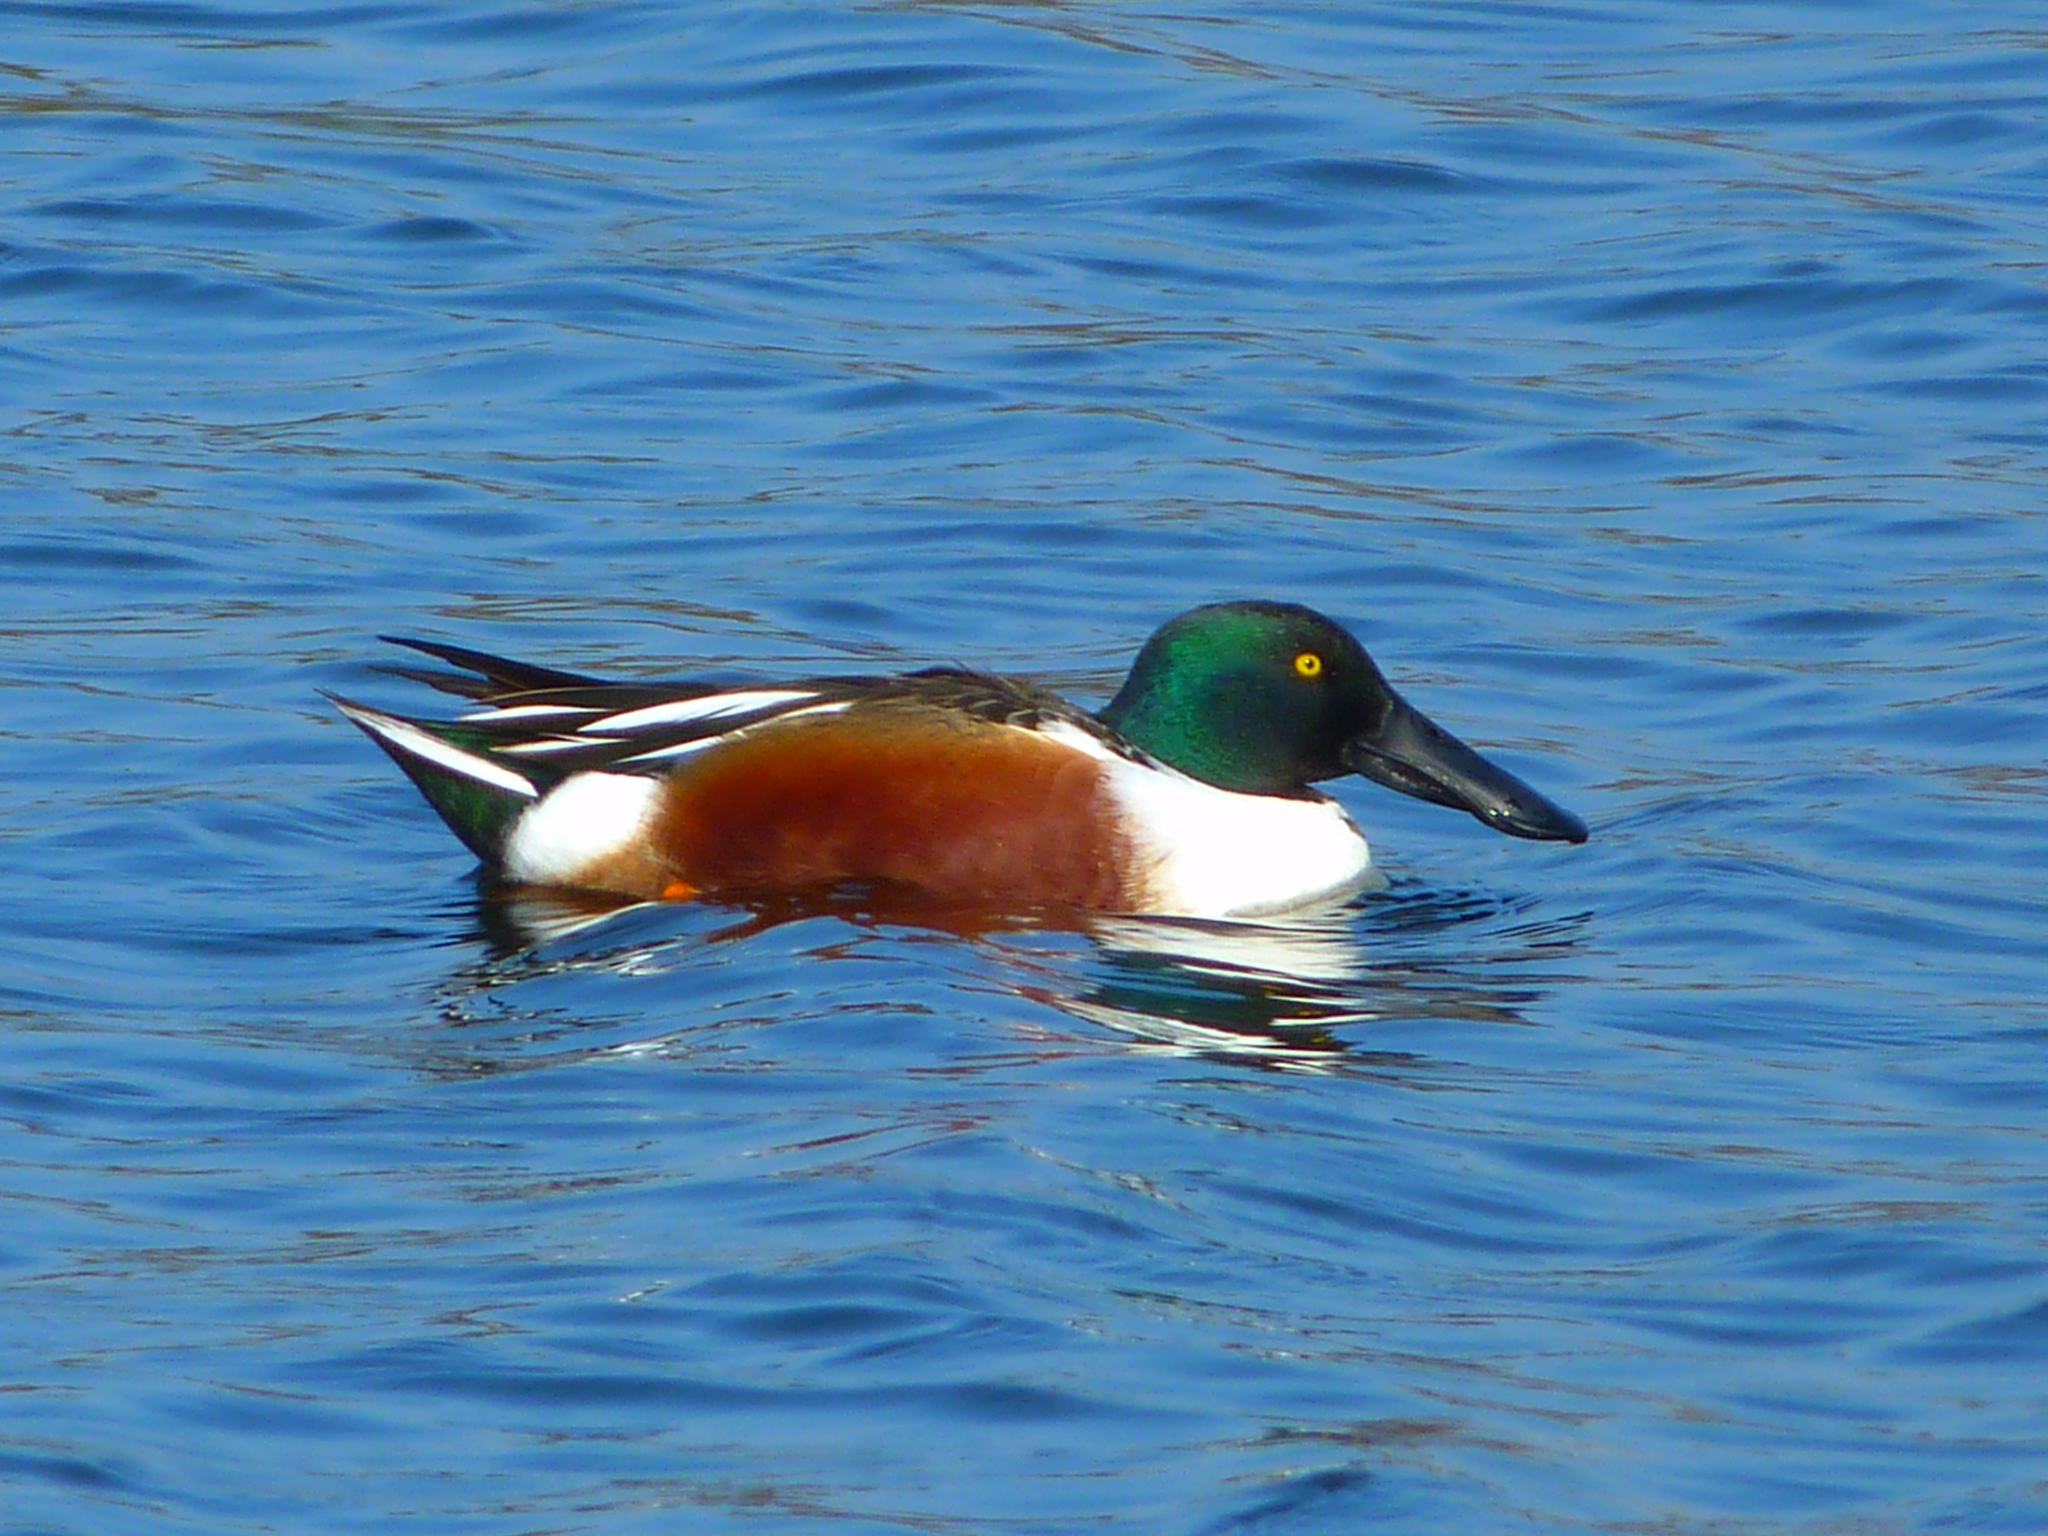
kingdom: Animalia
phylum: Chordata
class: Aves
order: Anseriformes
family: Anatidae
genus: Spatula
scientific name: Spatula clypeata
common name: Northern shoveler
